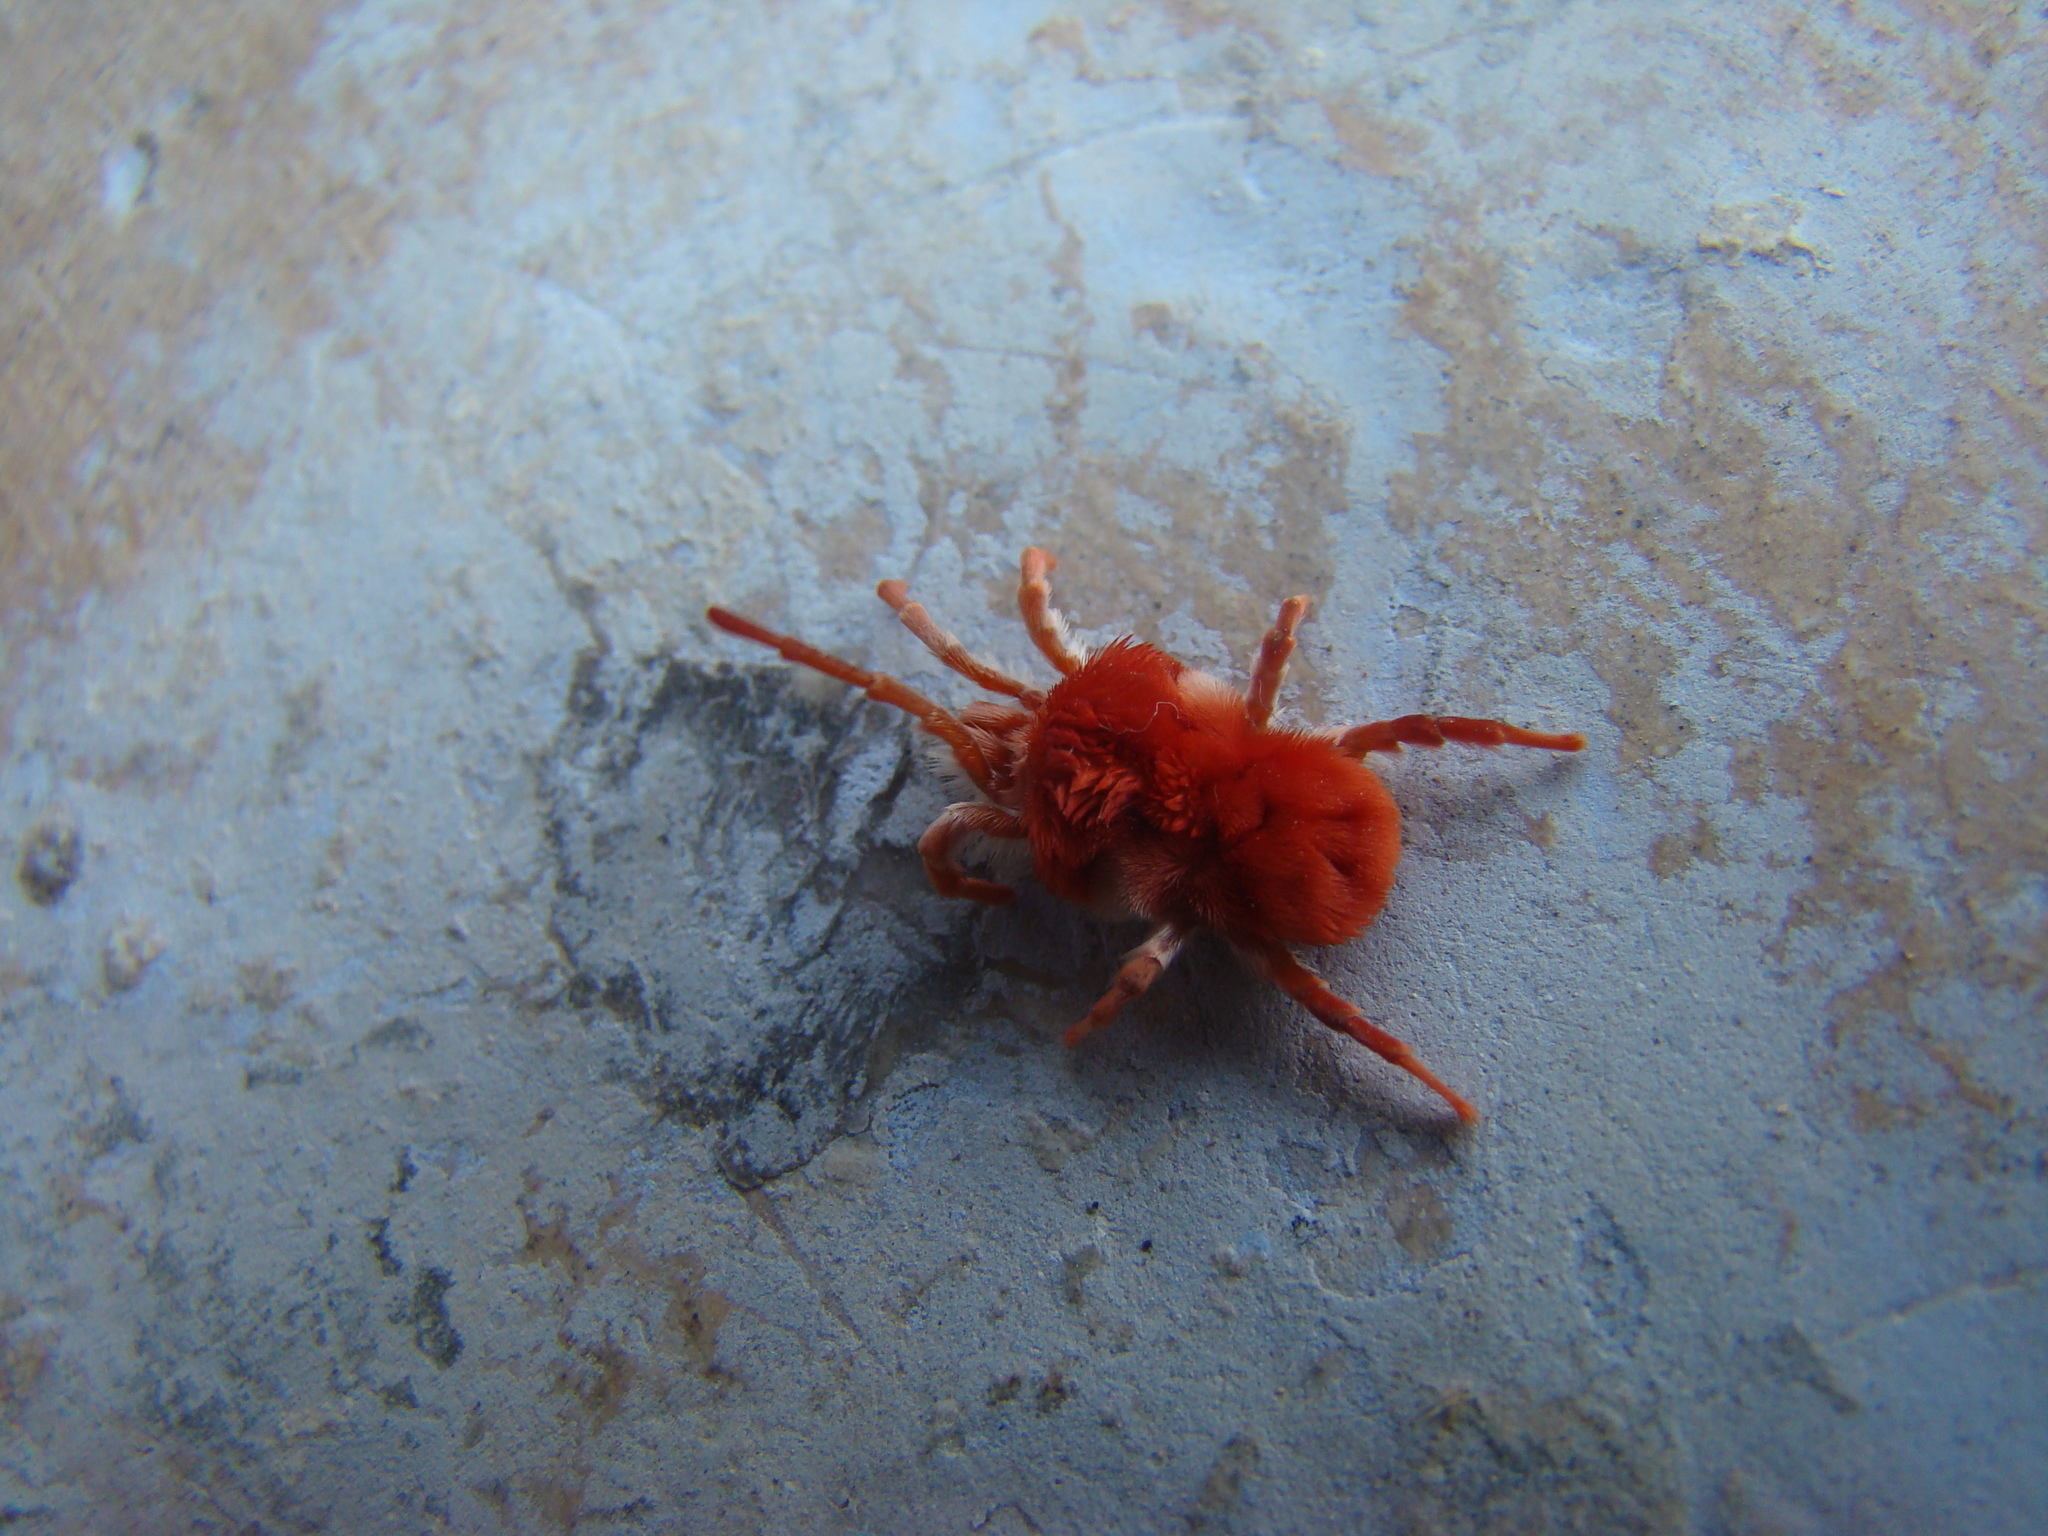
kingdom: Animalia
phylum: Arthropoda
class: Arachnida
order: Trombidiformes
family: Leeuwenhoekiidae
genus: Dinothrombium
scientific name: Dinothrombium
